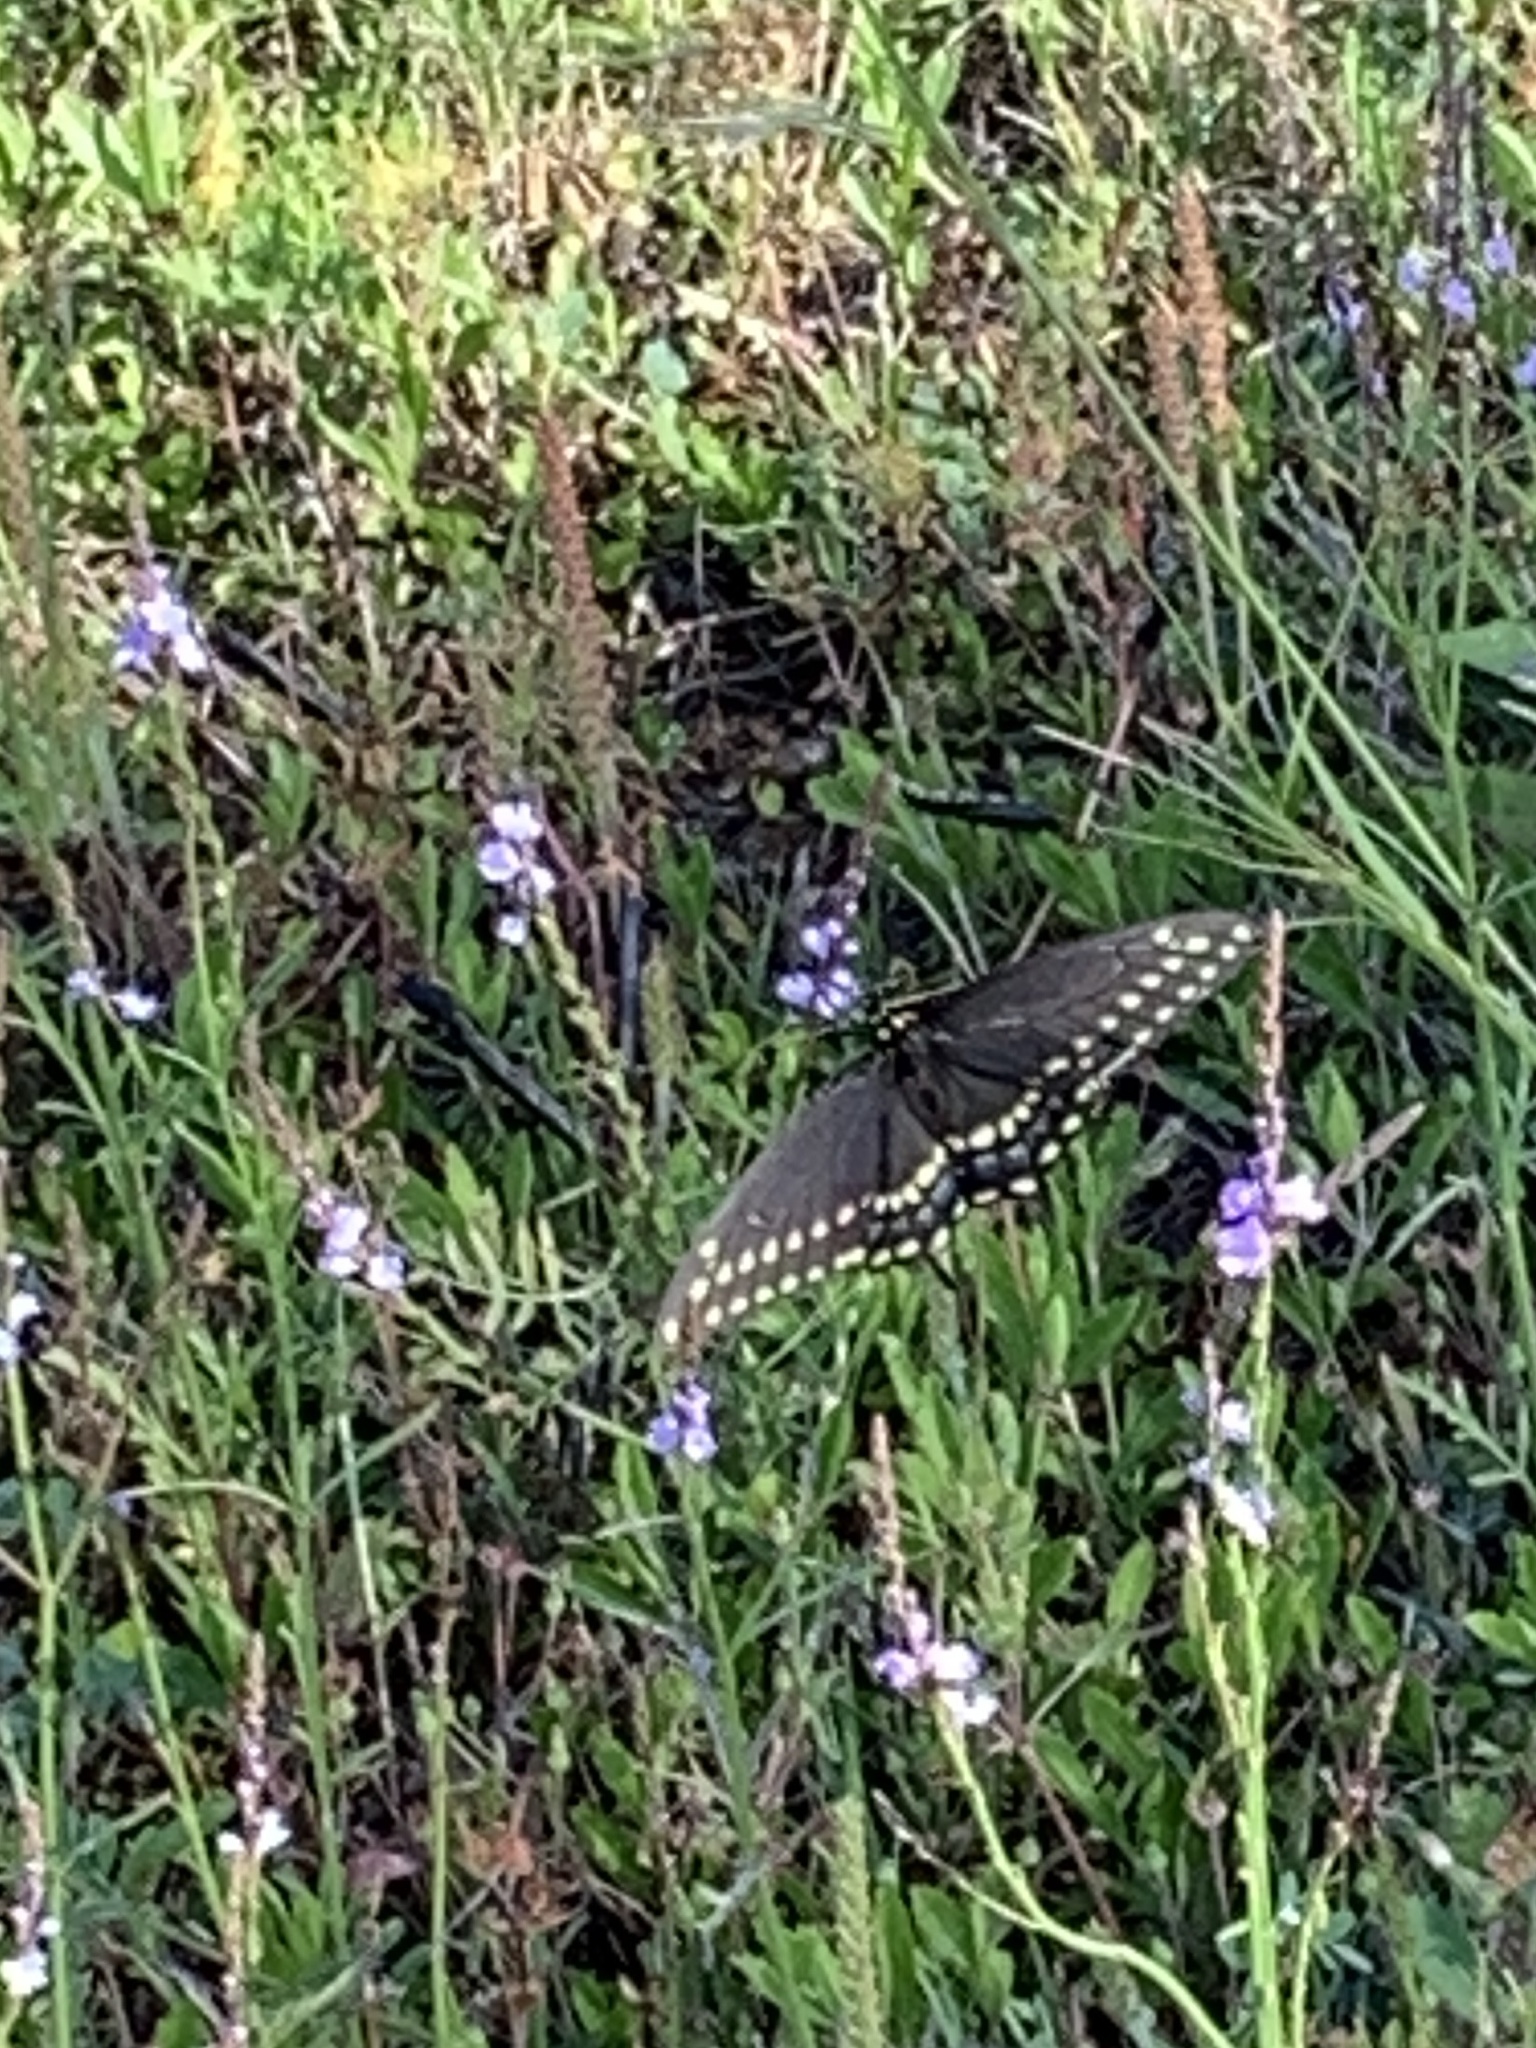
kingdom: Animalia
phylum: Arthropoda
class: Insecta
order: Lepidoptera
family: Papilionidae
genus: Papilio
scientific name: Papilio polyxenes
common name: Black swallowtail
